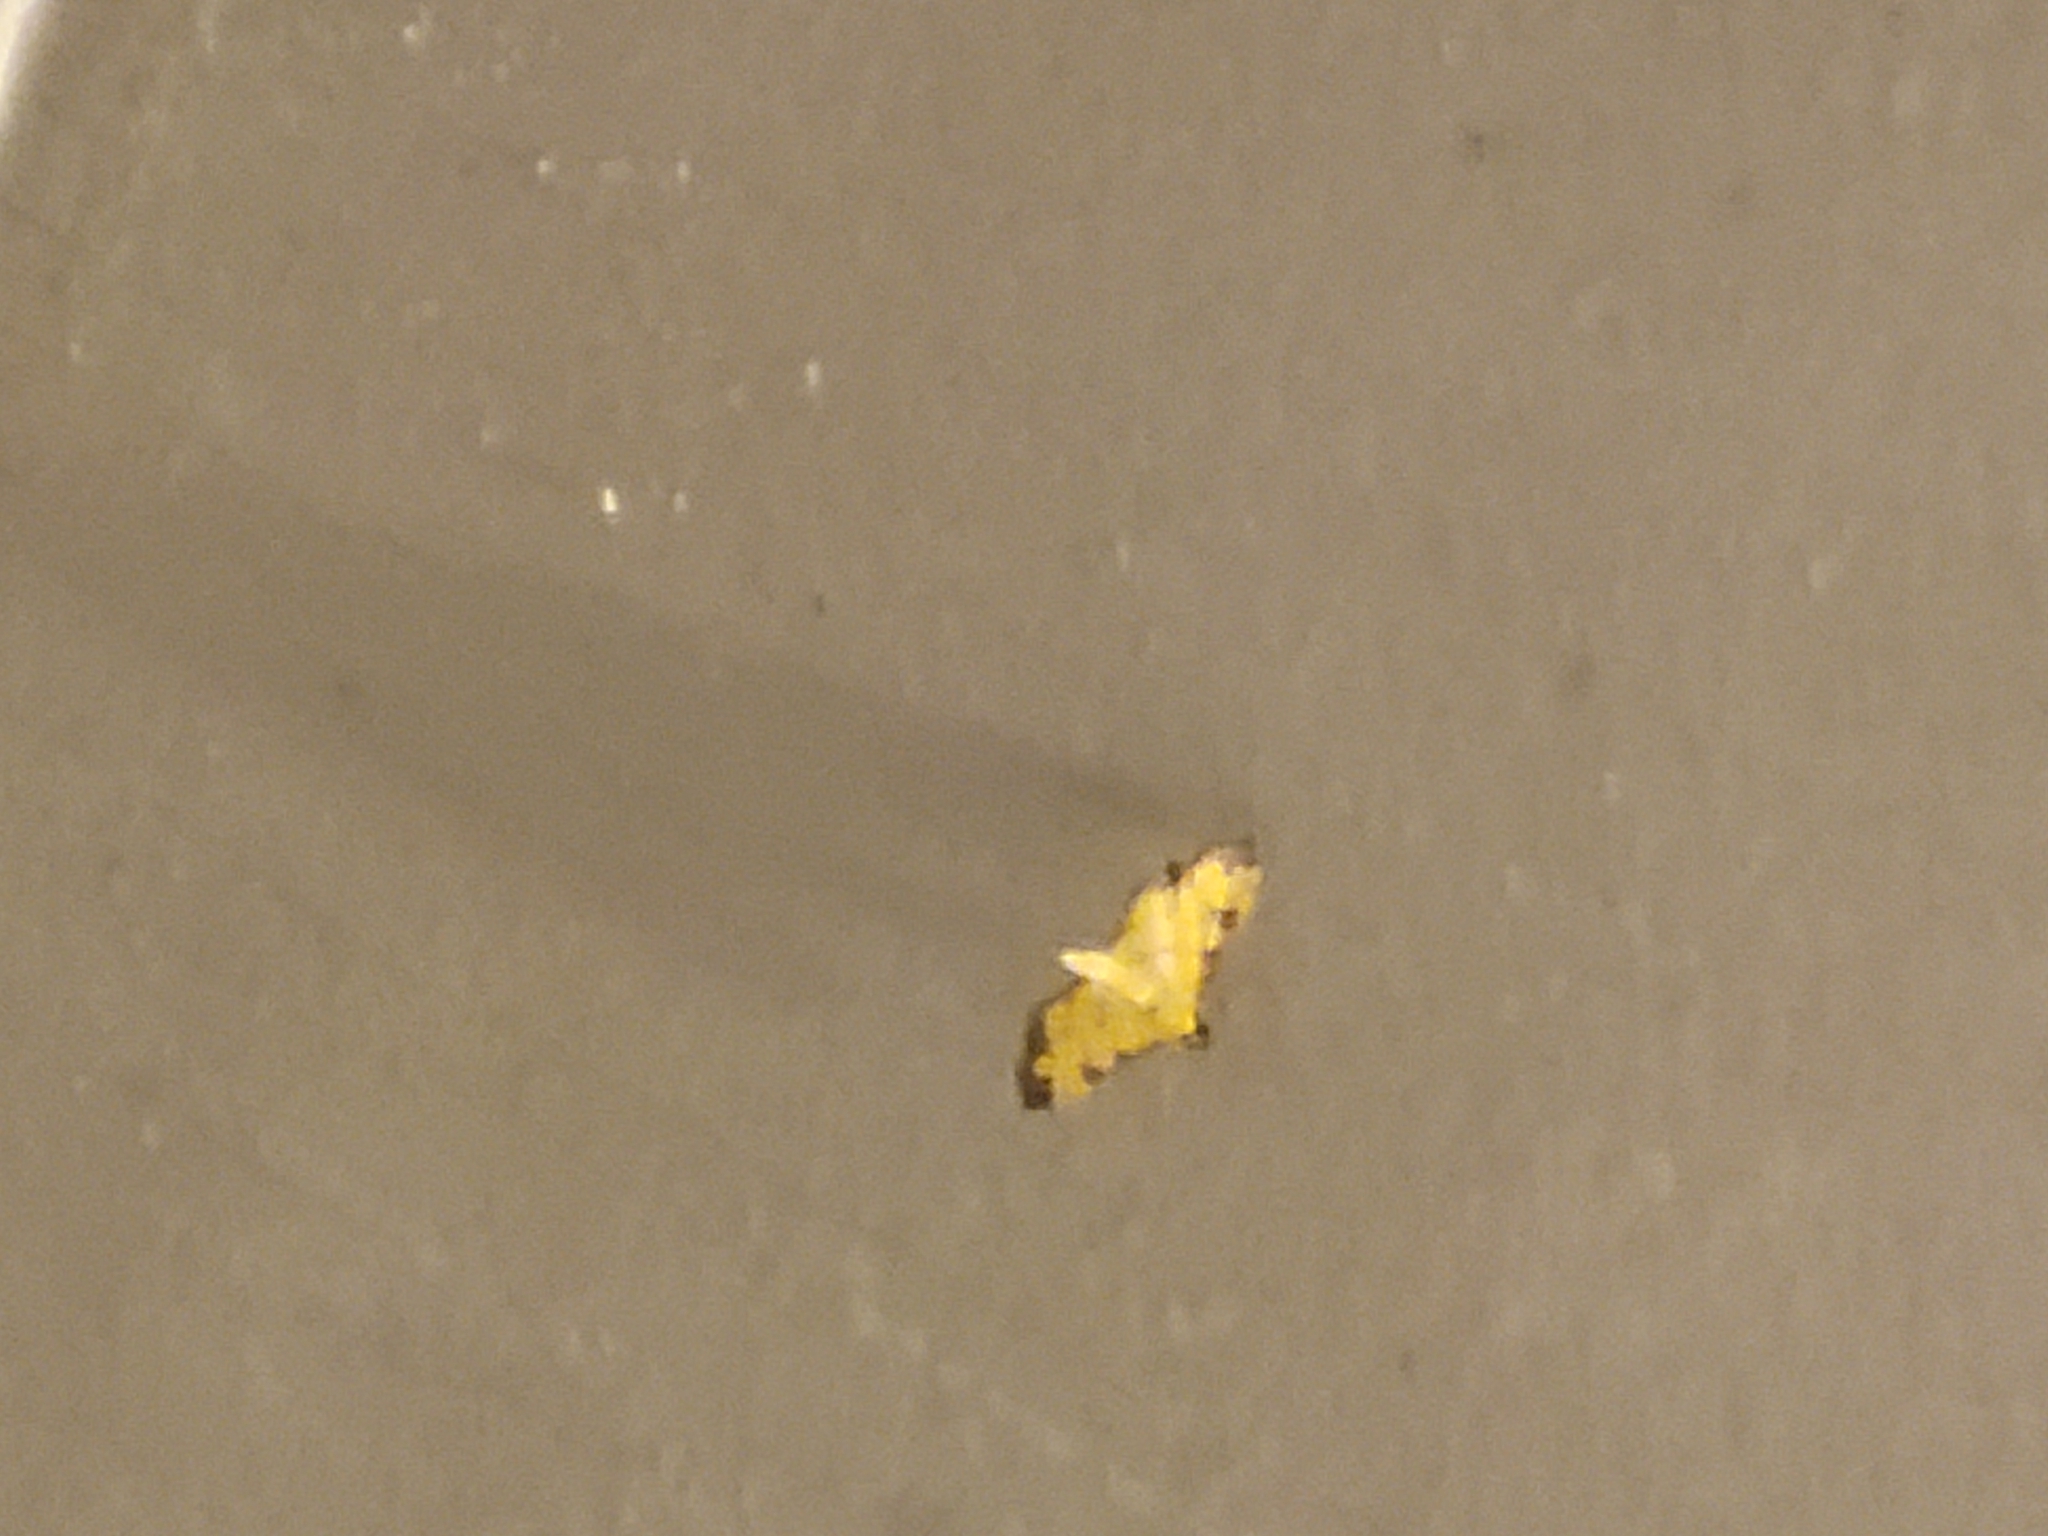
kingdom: Animalia
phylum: Arthropoda
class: Insecta
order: Lepidoptera
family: Crambidae
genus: Ategumia
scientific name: Ategumia ebulealis
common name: Moth
